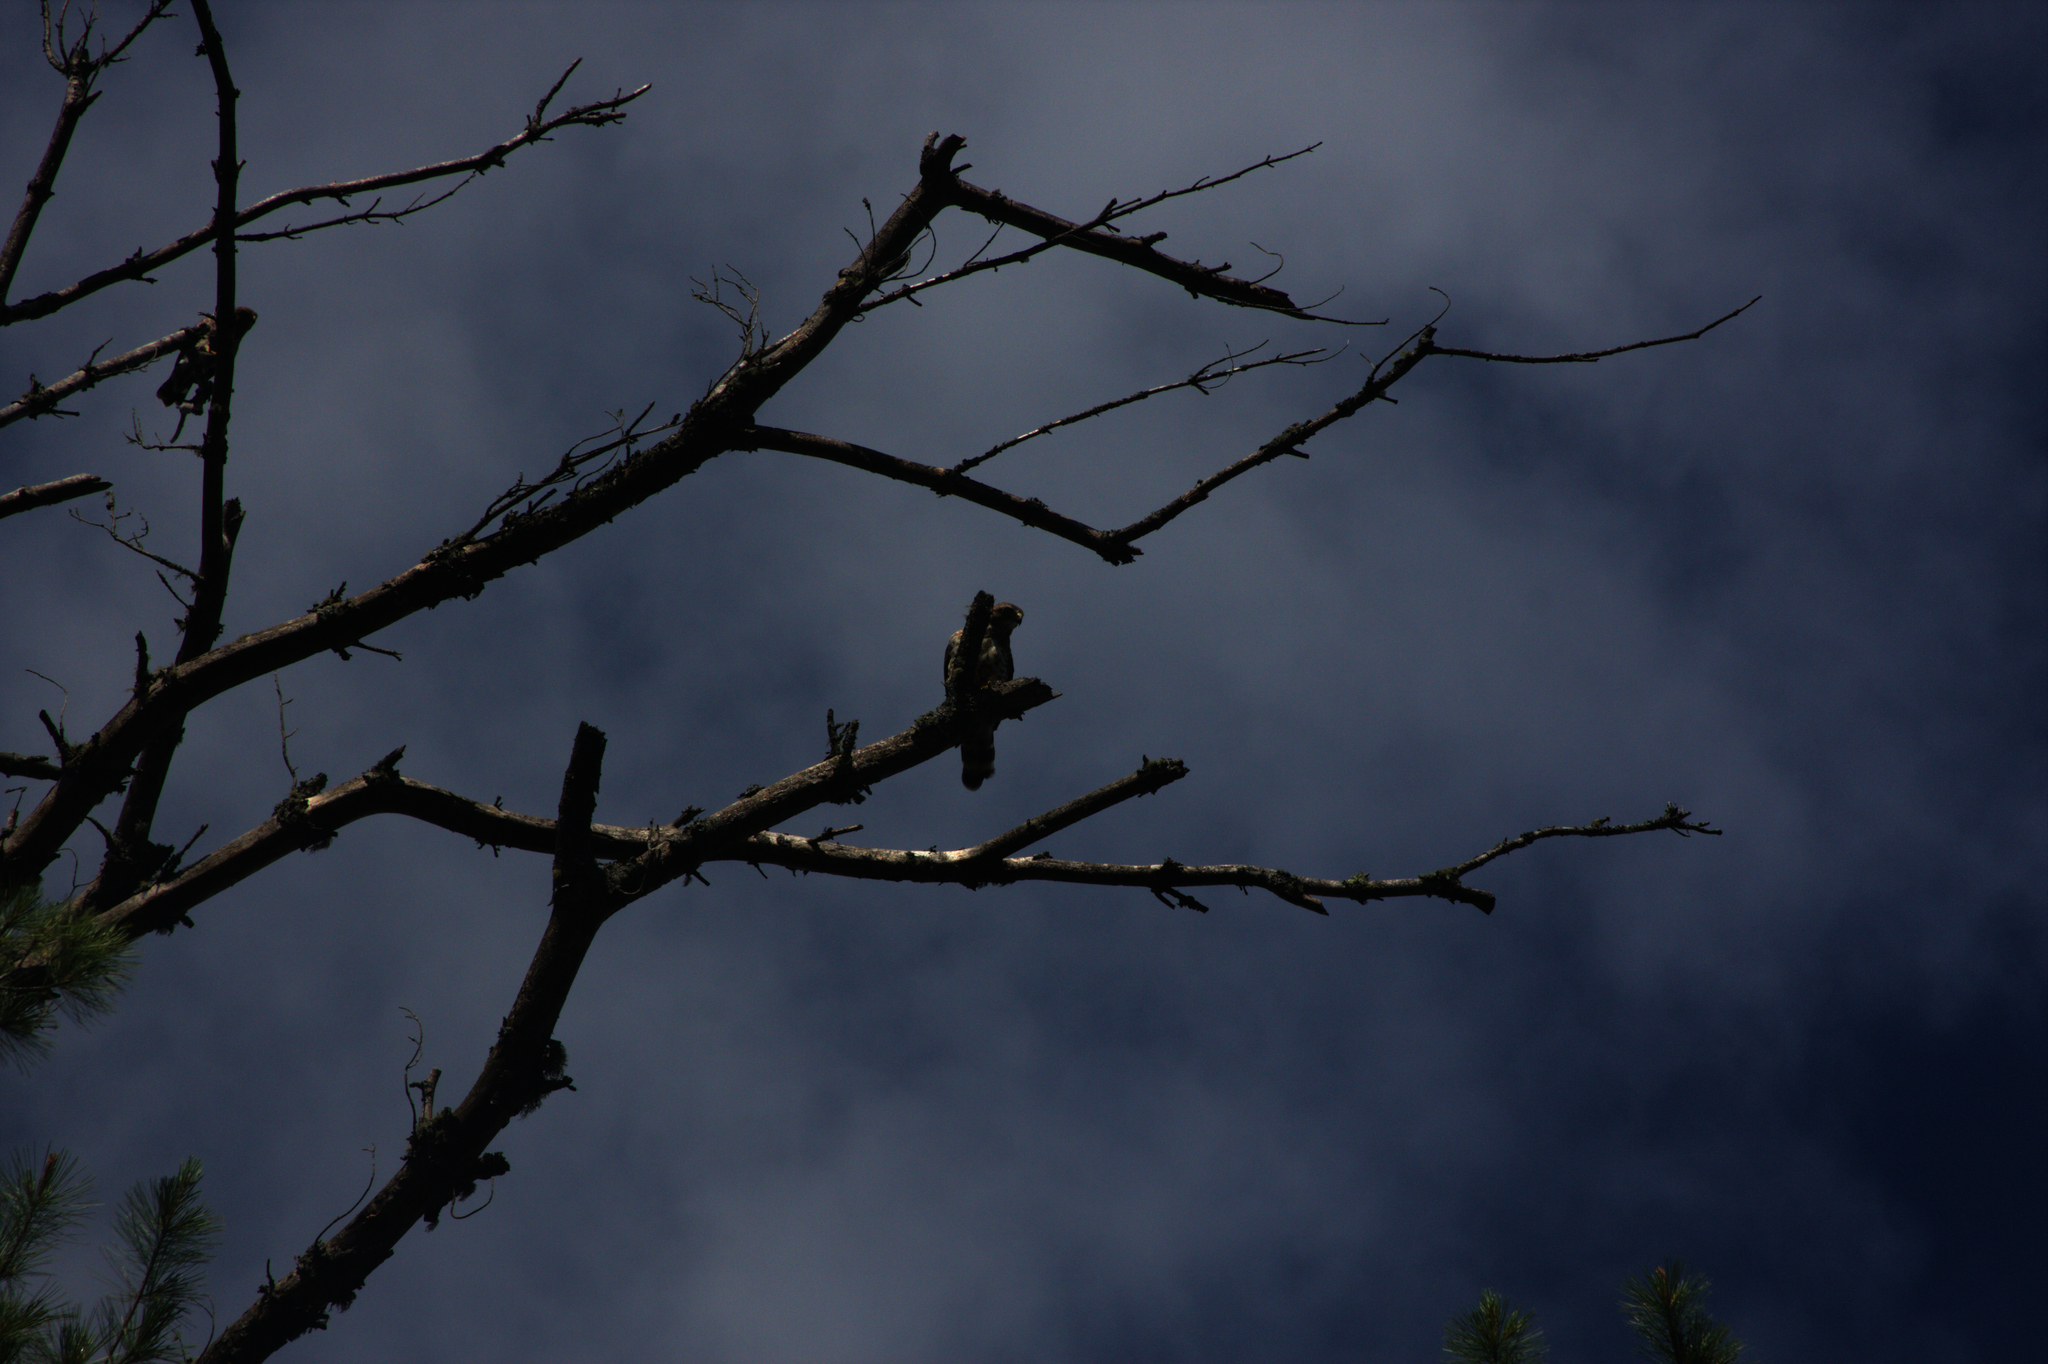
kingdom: Animalia
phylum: Chordata
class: Aves
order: Accipitriformes
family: Accipitridae
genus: Buteo
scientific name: Buteo platypterus
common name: Broad-winged hawk
